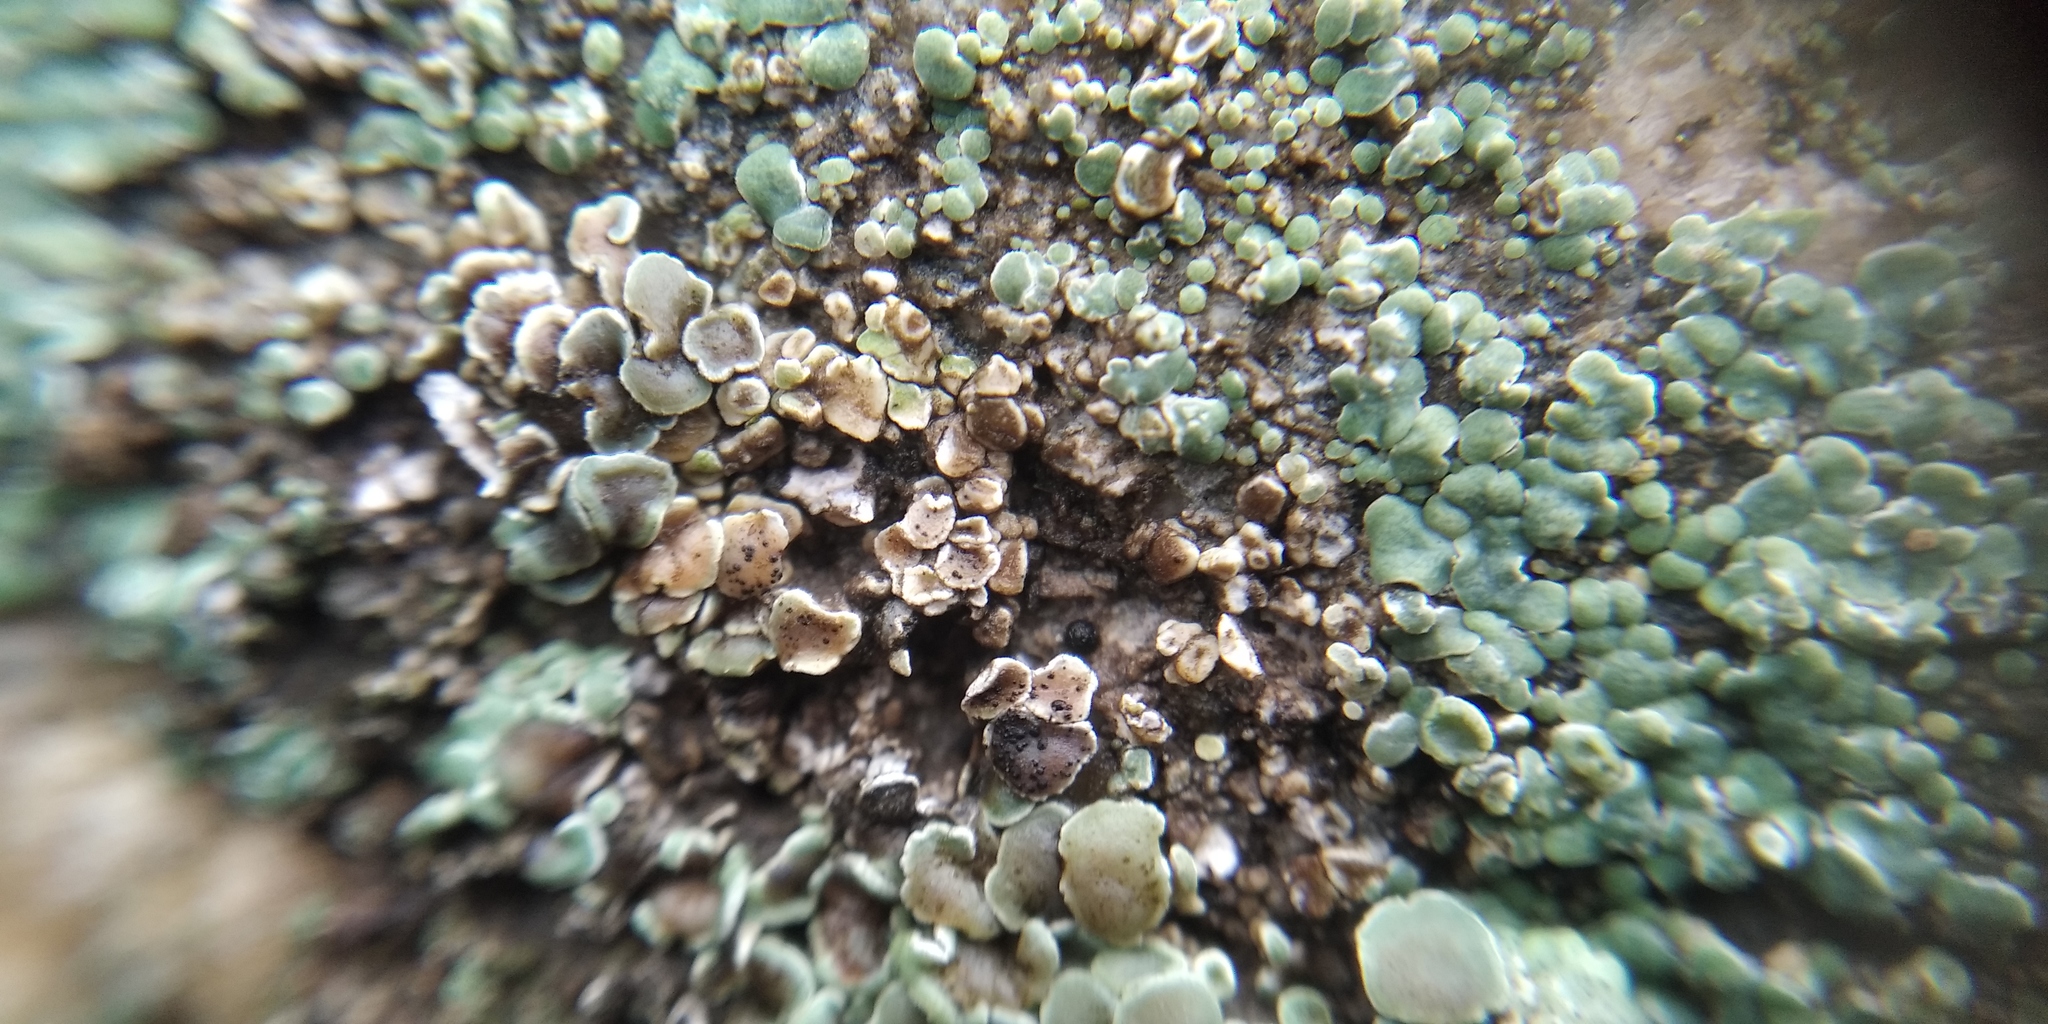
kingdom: Fungi
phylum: Ascomycota
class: Lecanoromycetes
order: Lecanorales
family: Lecanoraceae
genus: Protoparmeliopsis
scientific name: Protoparmeliopsis muralis
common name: Stonewall rim lichen
